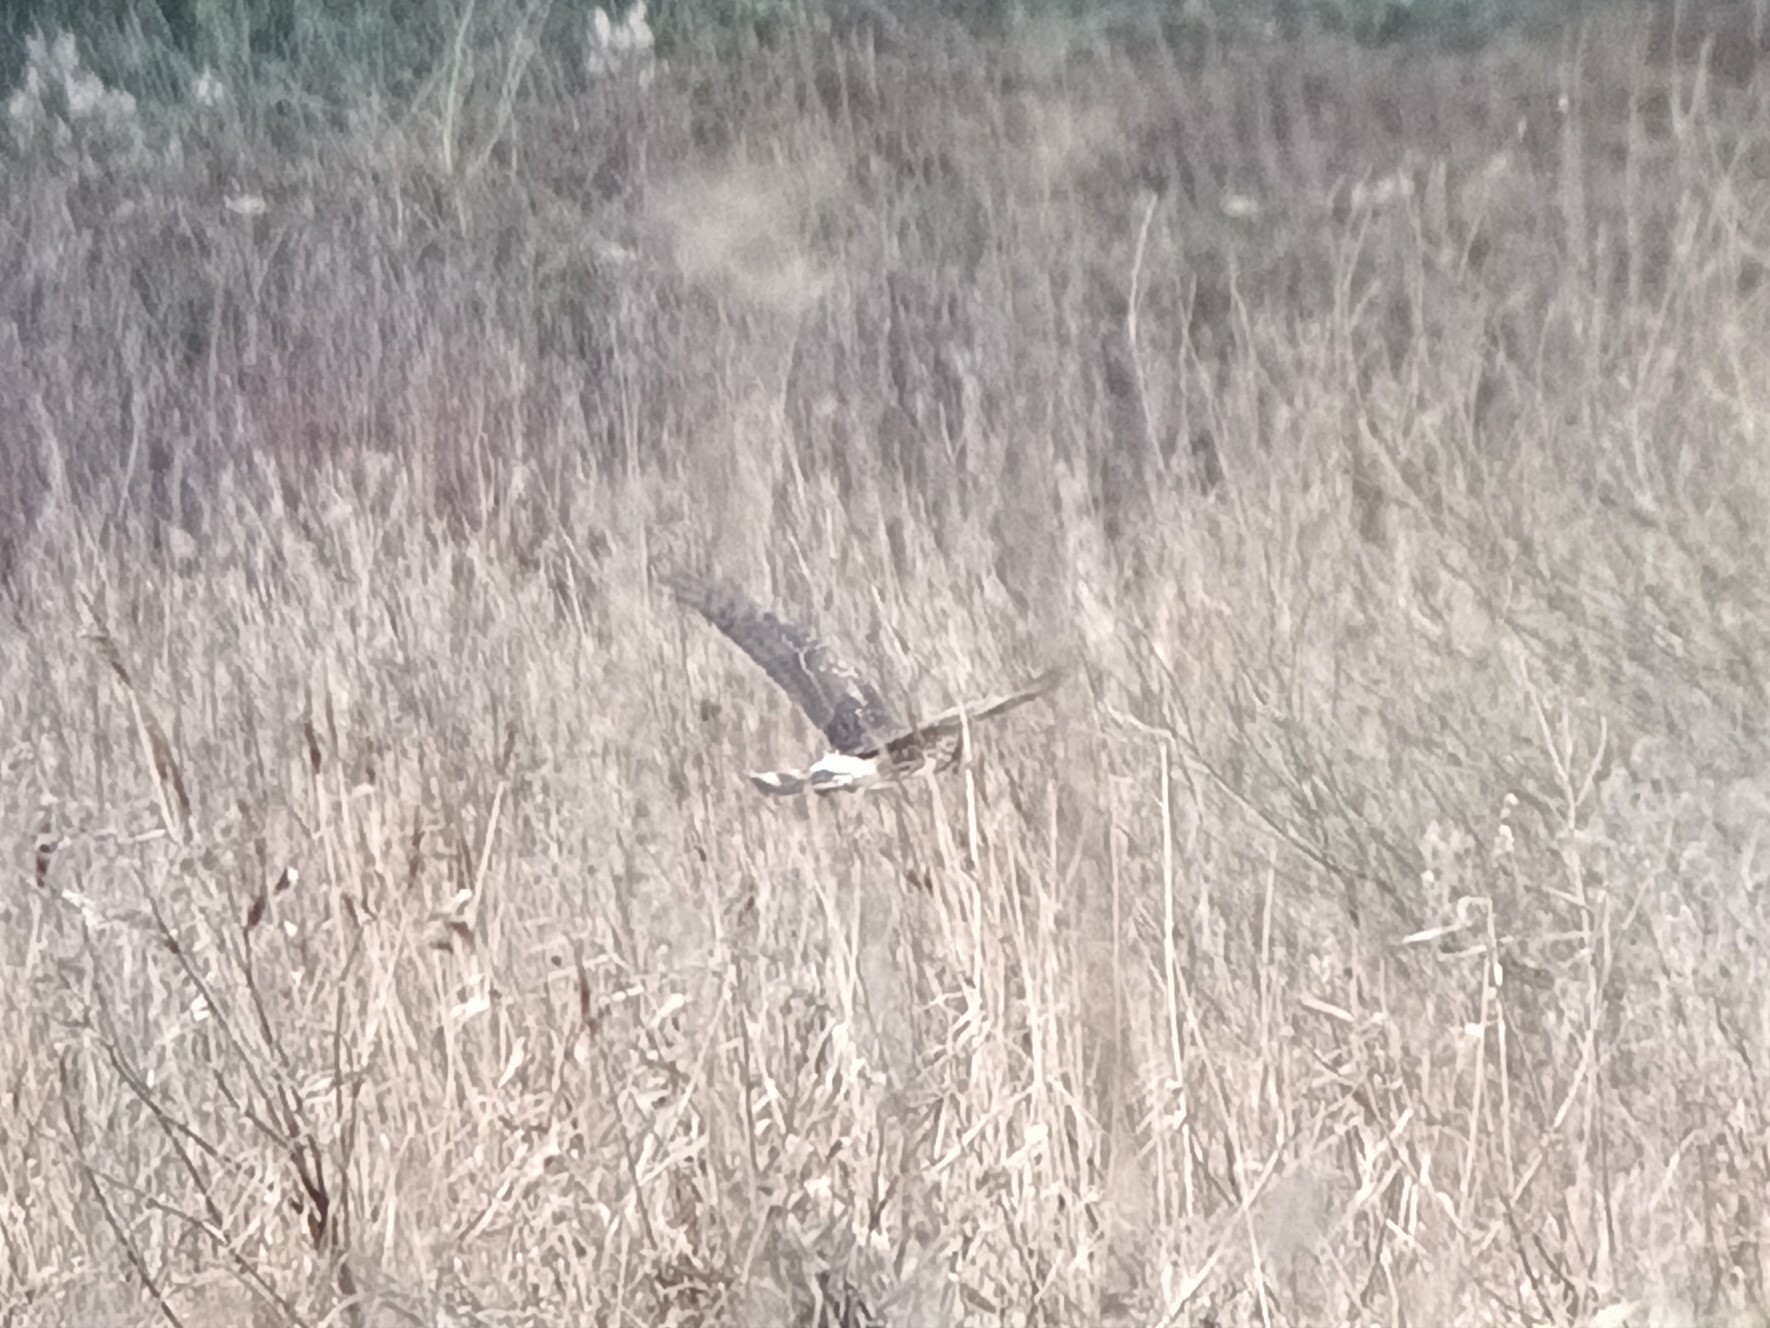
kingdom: Animalia
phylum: Chordata
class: Aves
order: Accipitriformes
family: Accipitridae
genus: Circus
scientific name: Circus cyaneus
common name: Hen harrier
